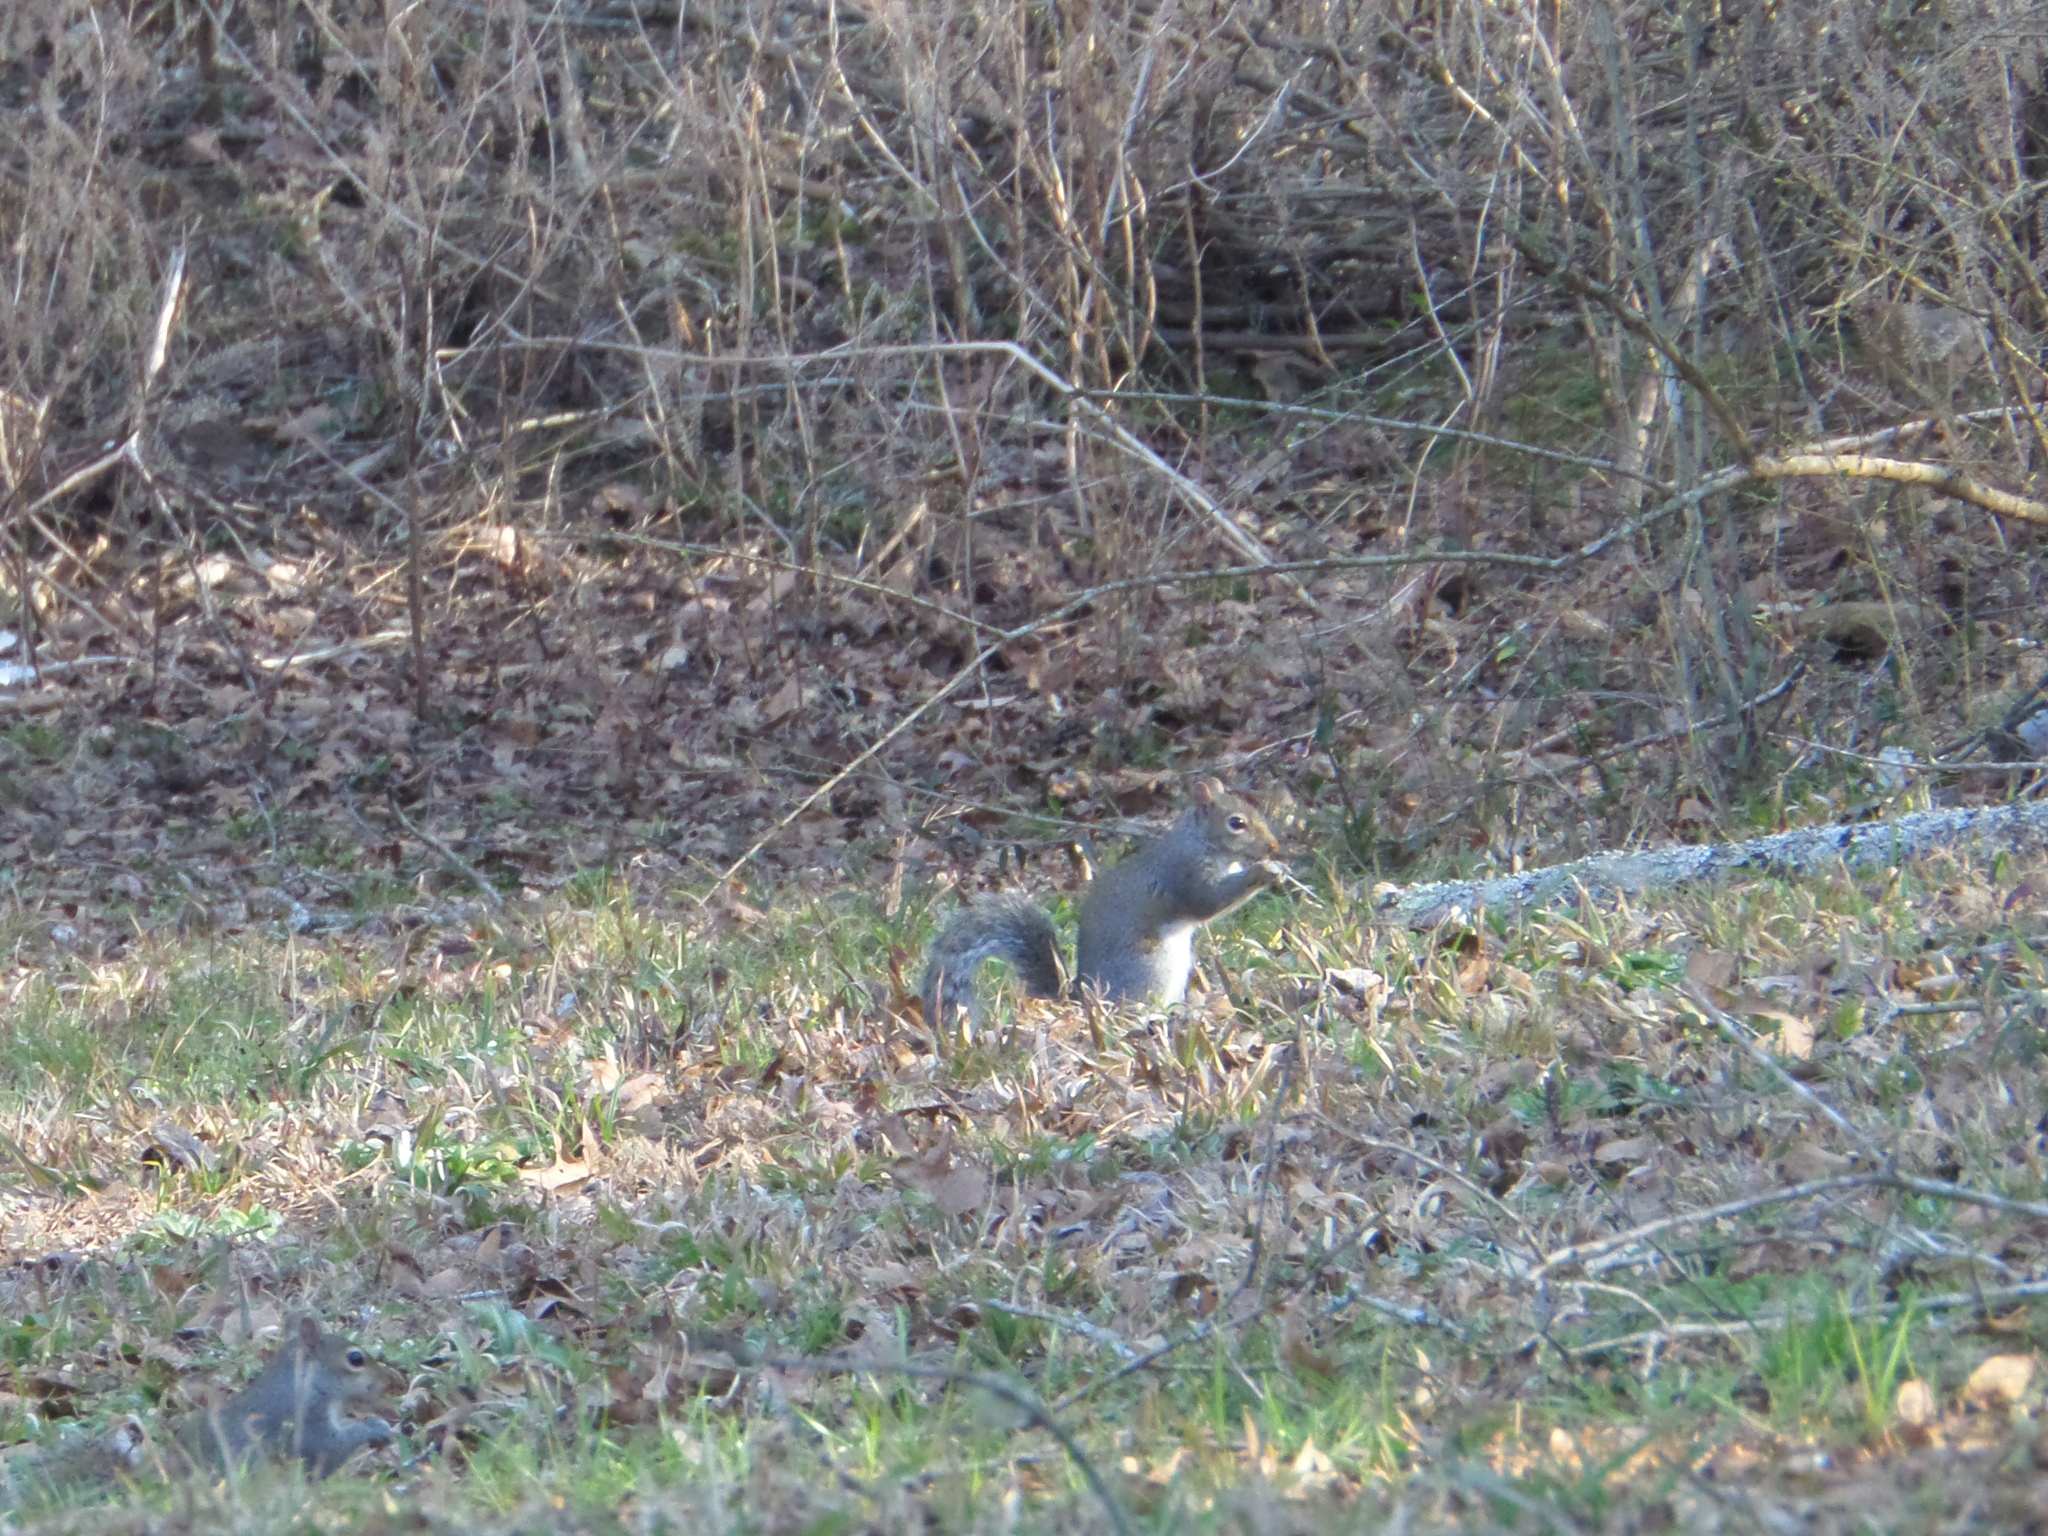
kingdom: Animalia
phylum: Chordata
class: Mammalia
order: Rodentia
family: Sciuridae
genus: Sciurus
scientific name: Sciurus carolinensis
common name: Eastern gray squirrel
